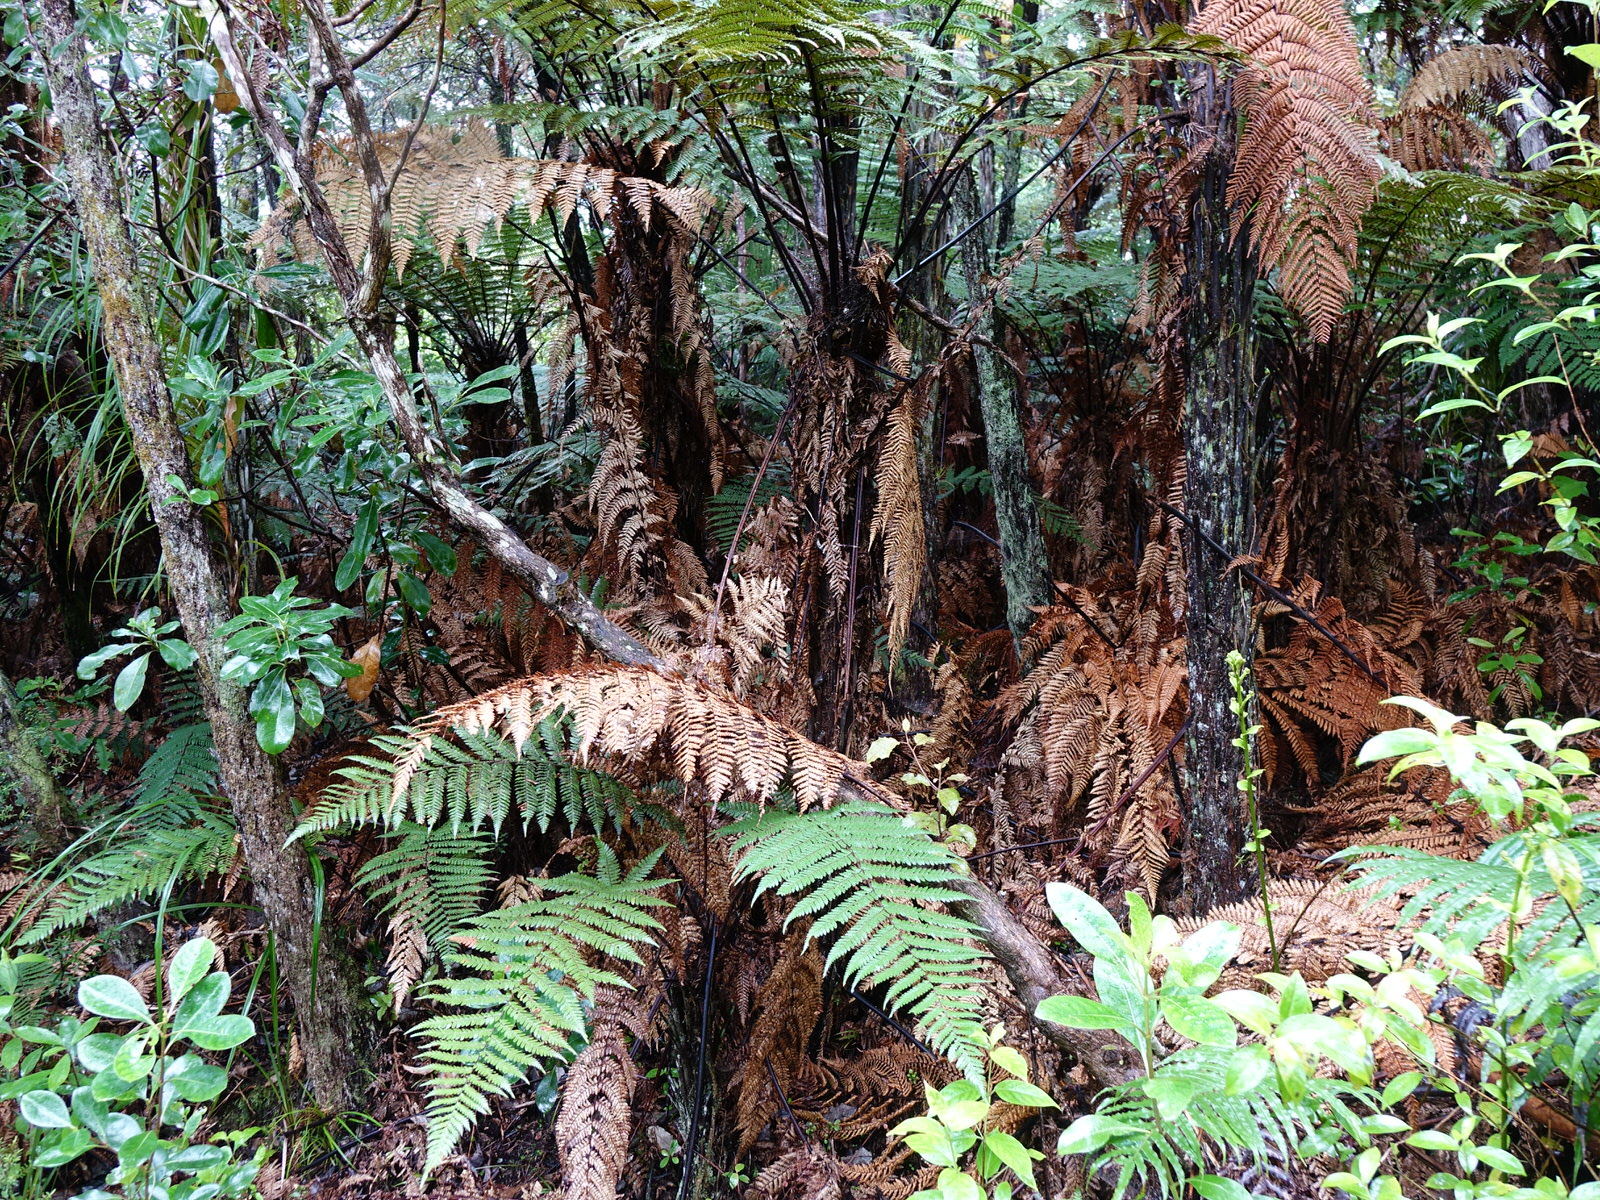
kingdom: Plantae
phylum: Tracheophyta
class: Polypodiopsida
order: Cyatheales
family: Dicksoniaceae
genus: Dicksonia
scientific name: Dicksonia squarrosa
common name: Hard treefern
